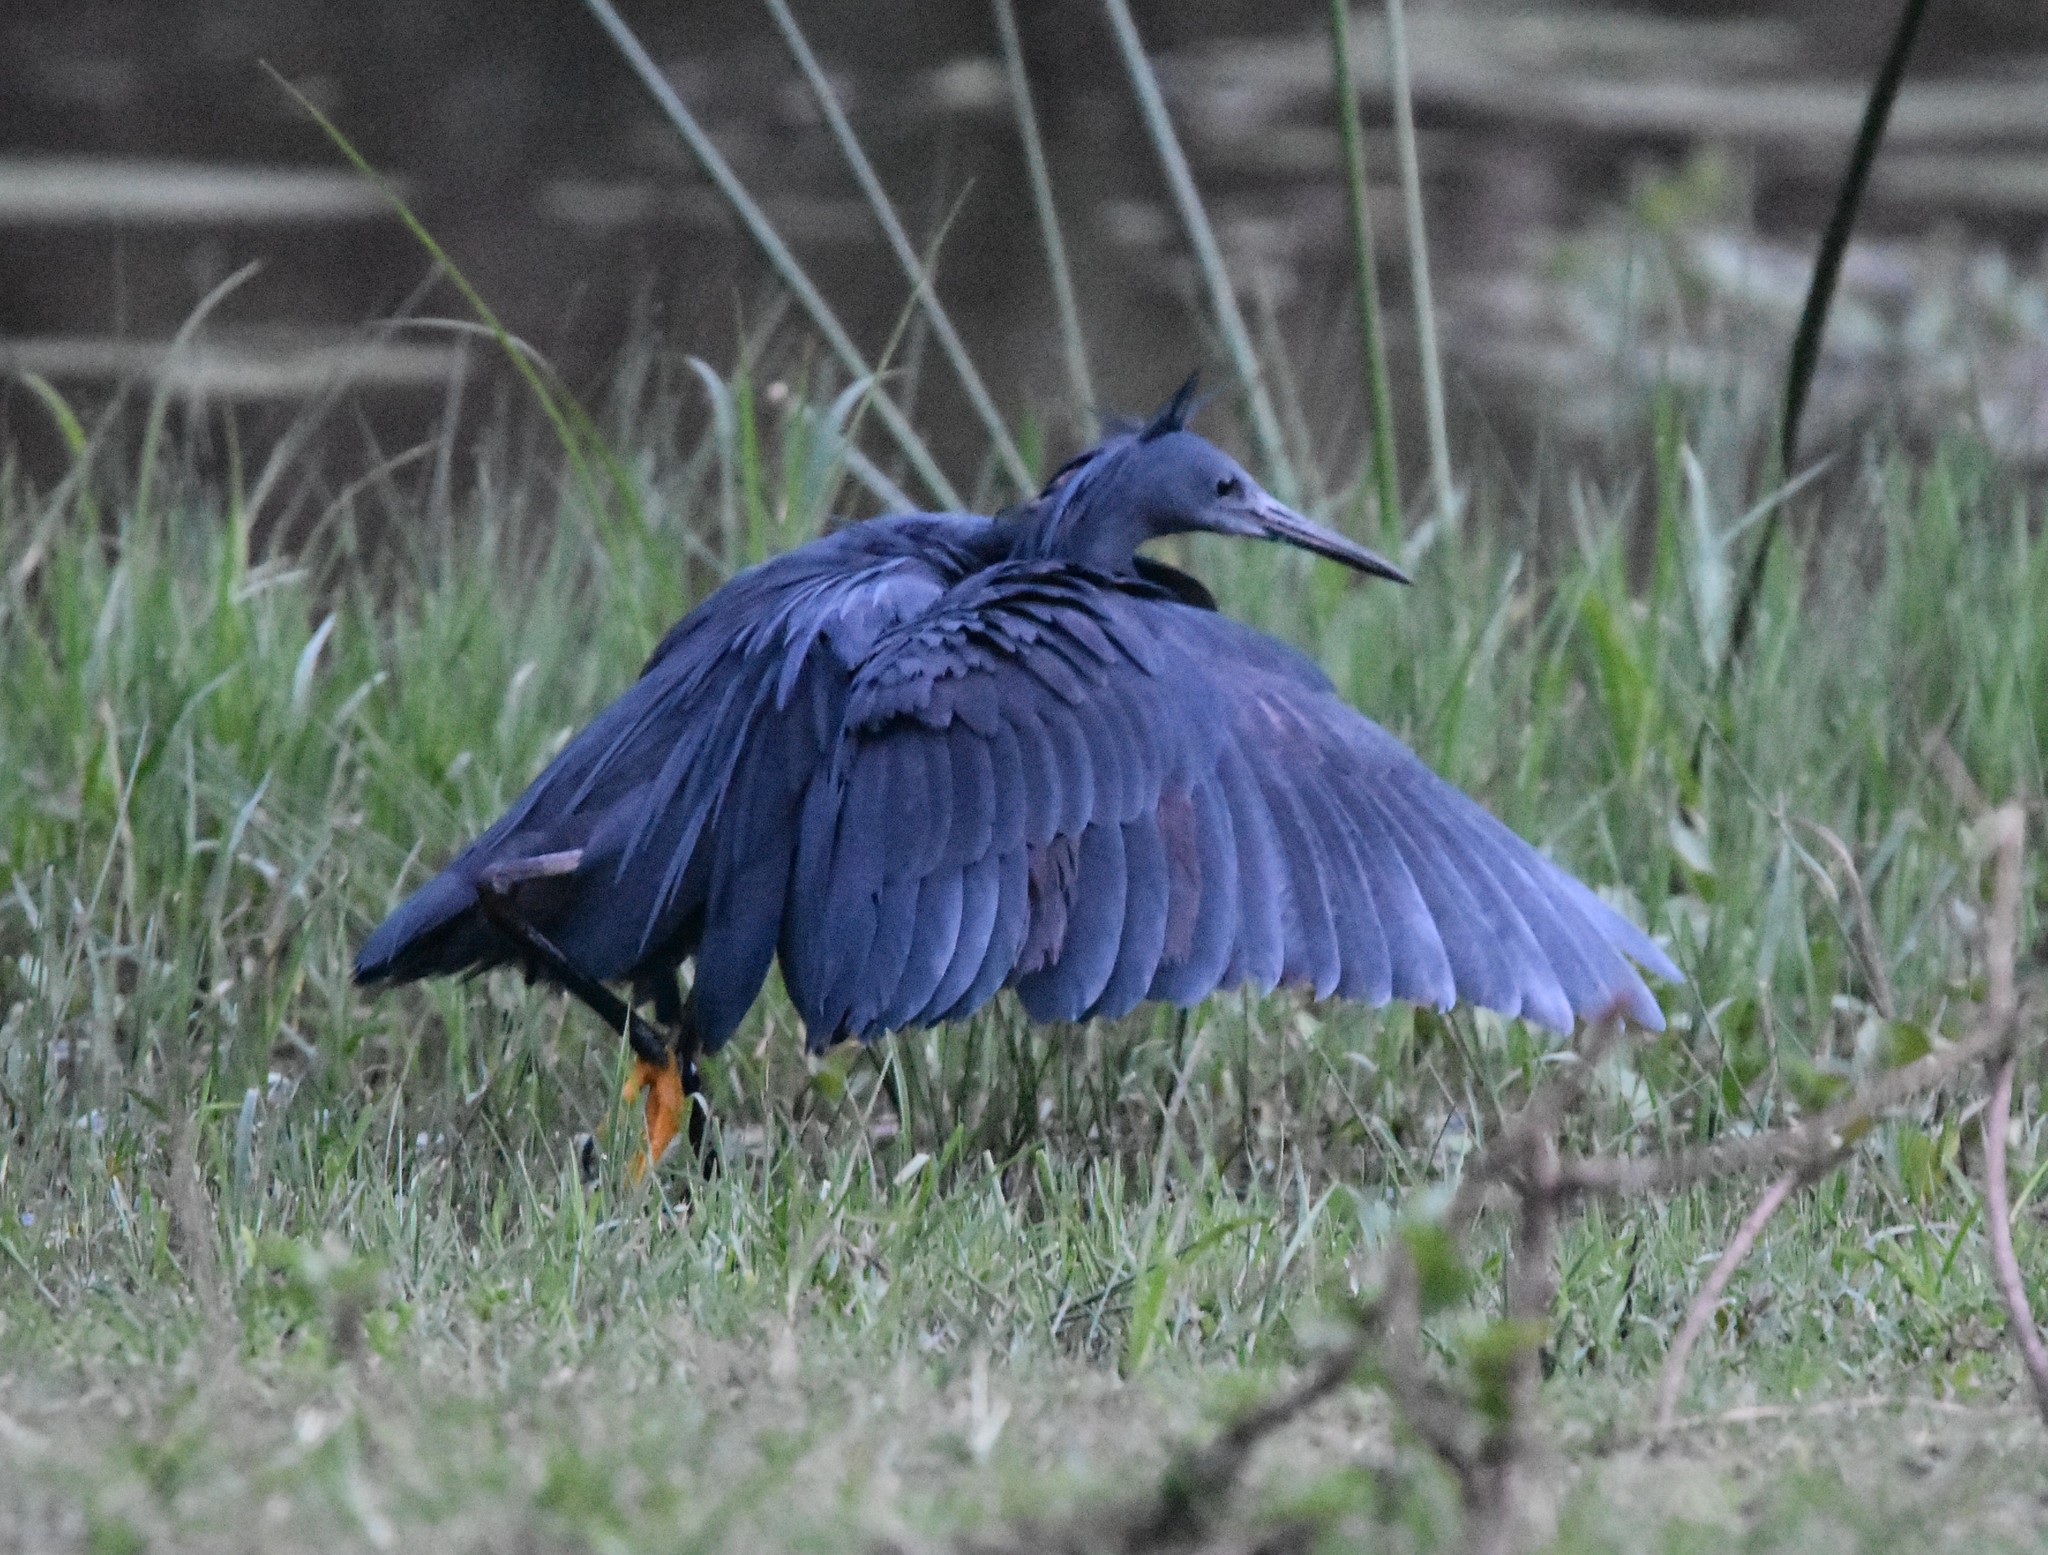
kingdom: Animalia
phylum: Chordata
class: Aves
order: Pelecaniformes
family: Ardeidae
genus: Egretta
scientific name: Egretta ardesiaca
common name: Black heron
